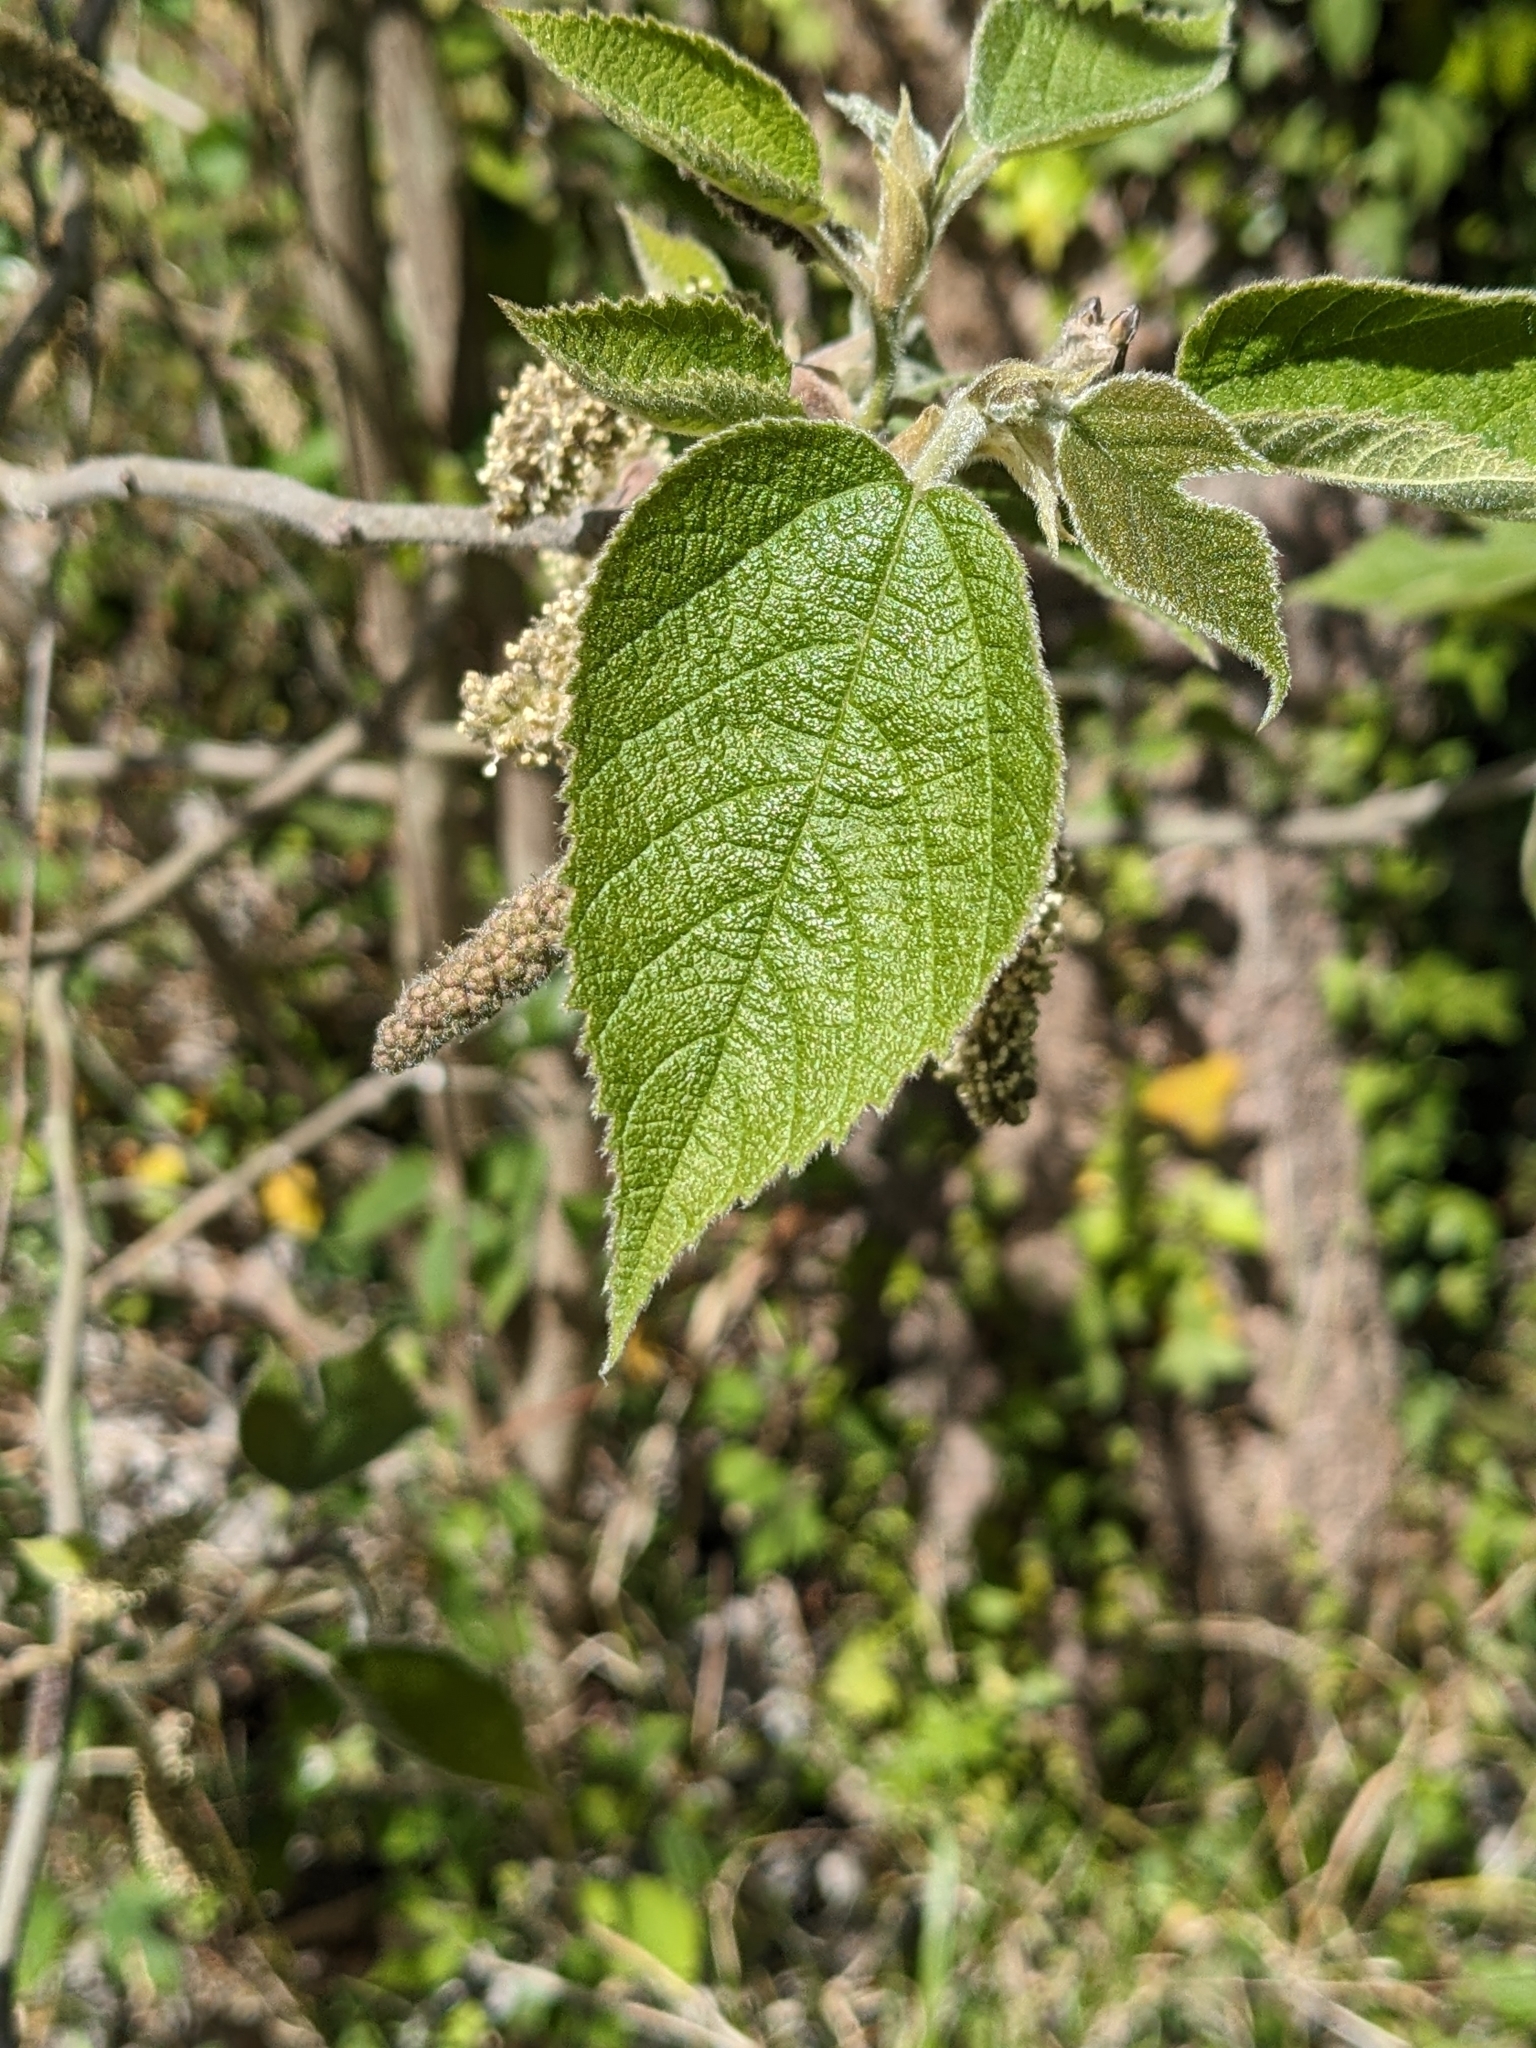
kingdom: Plantae
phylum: Tracheophyta
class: Magnoliopsida
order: Rosales
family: Moraceae
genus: Broussonetia
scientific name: Broussonetia papyrifera
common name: Paper mulberry
